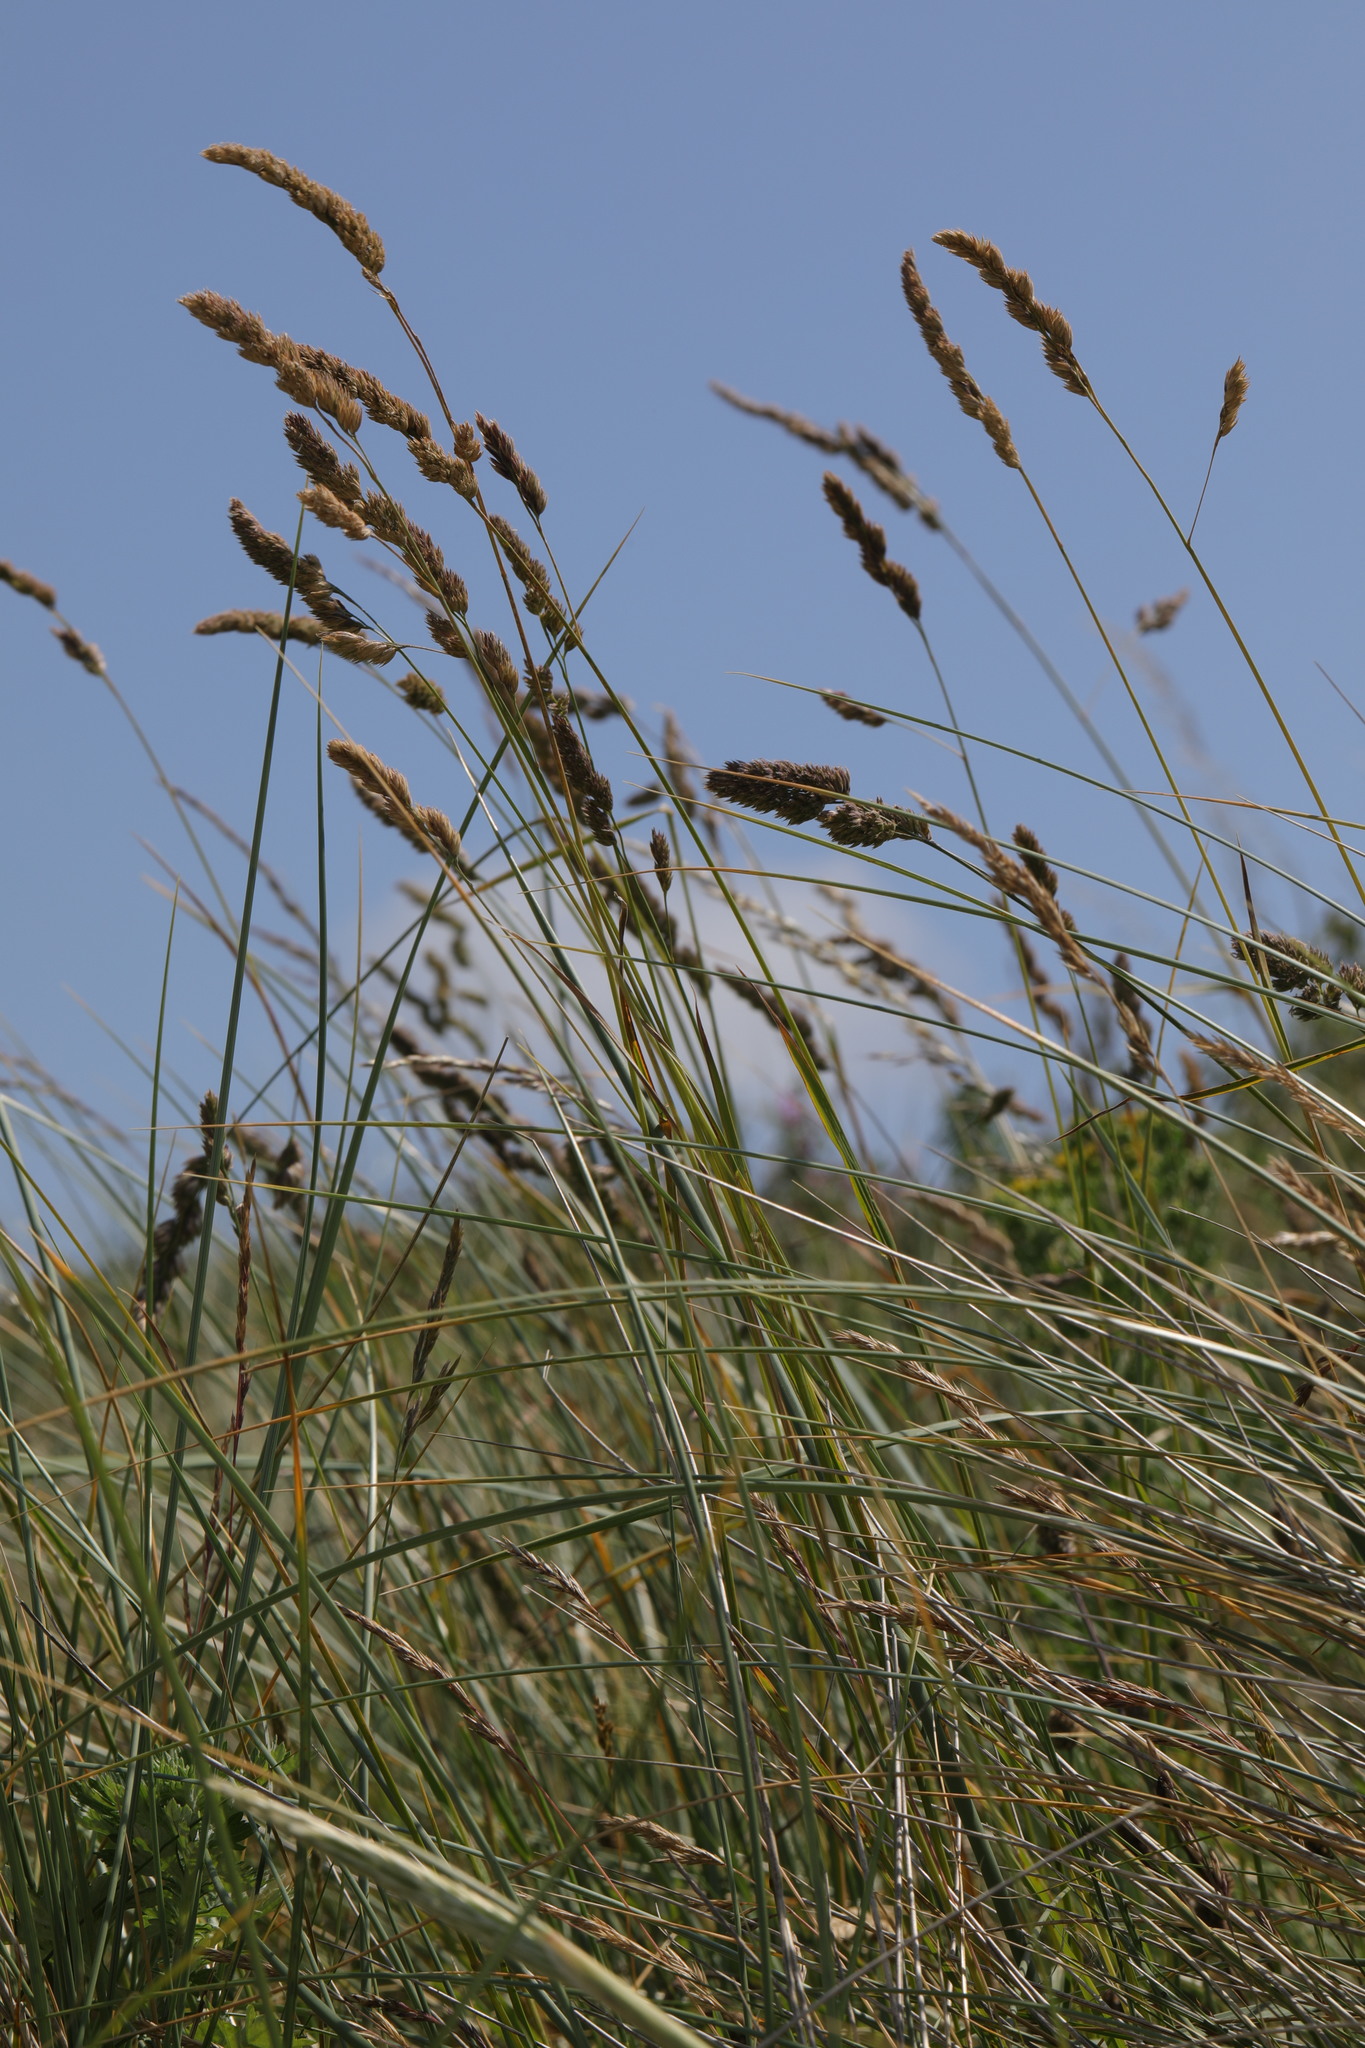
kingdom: Plantae
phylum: Tracheophyta
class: Liliopsida
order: Poales
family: Poaceae
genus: Dactylis
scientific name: Dactylis glomerata
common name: Orchardgrass
